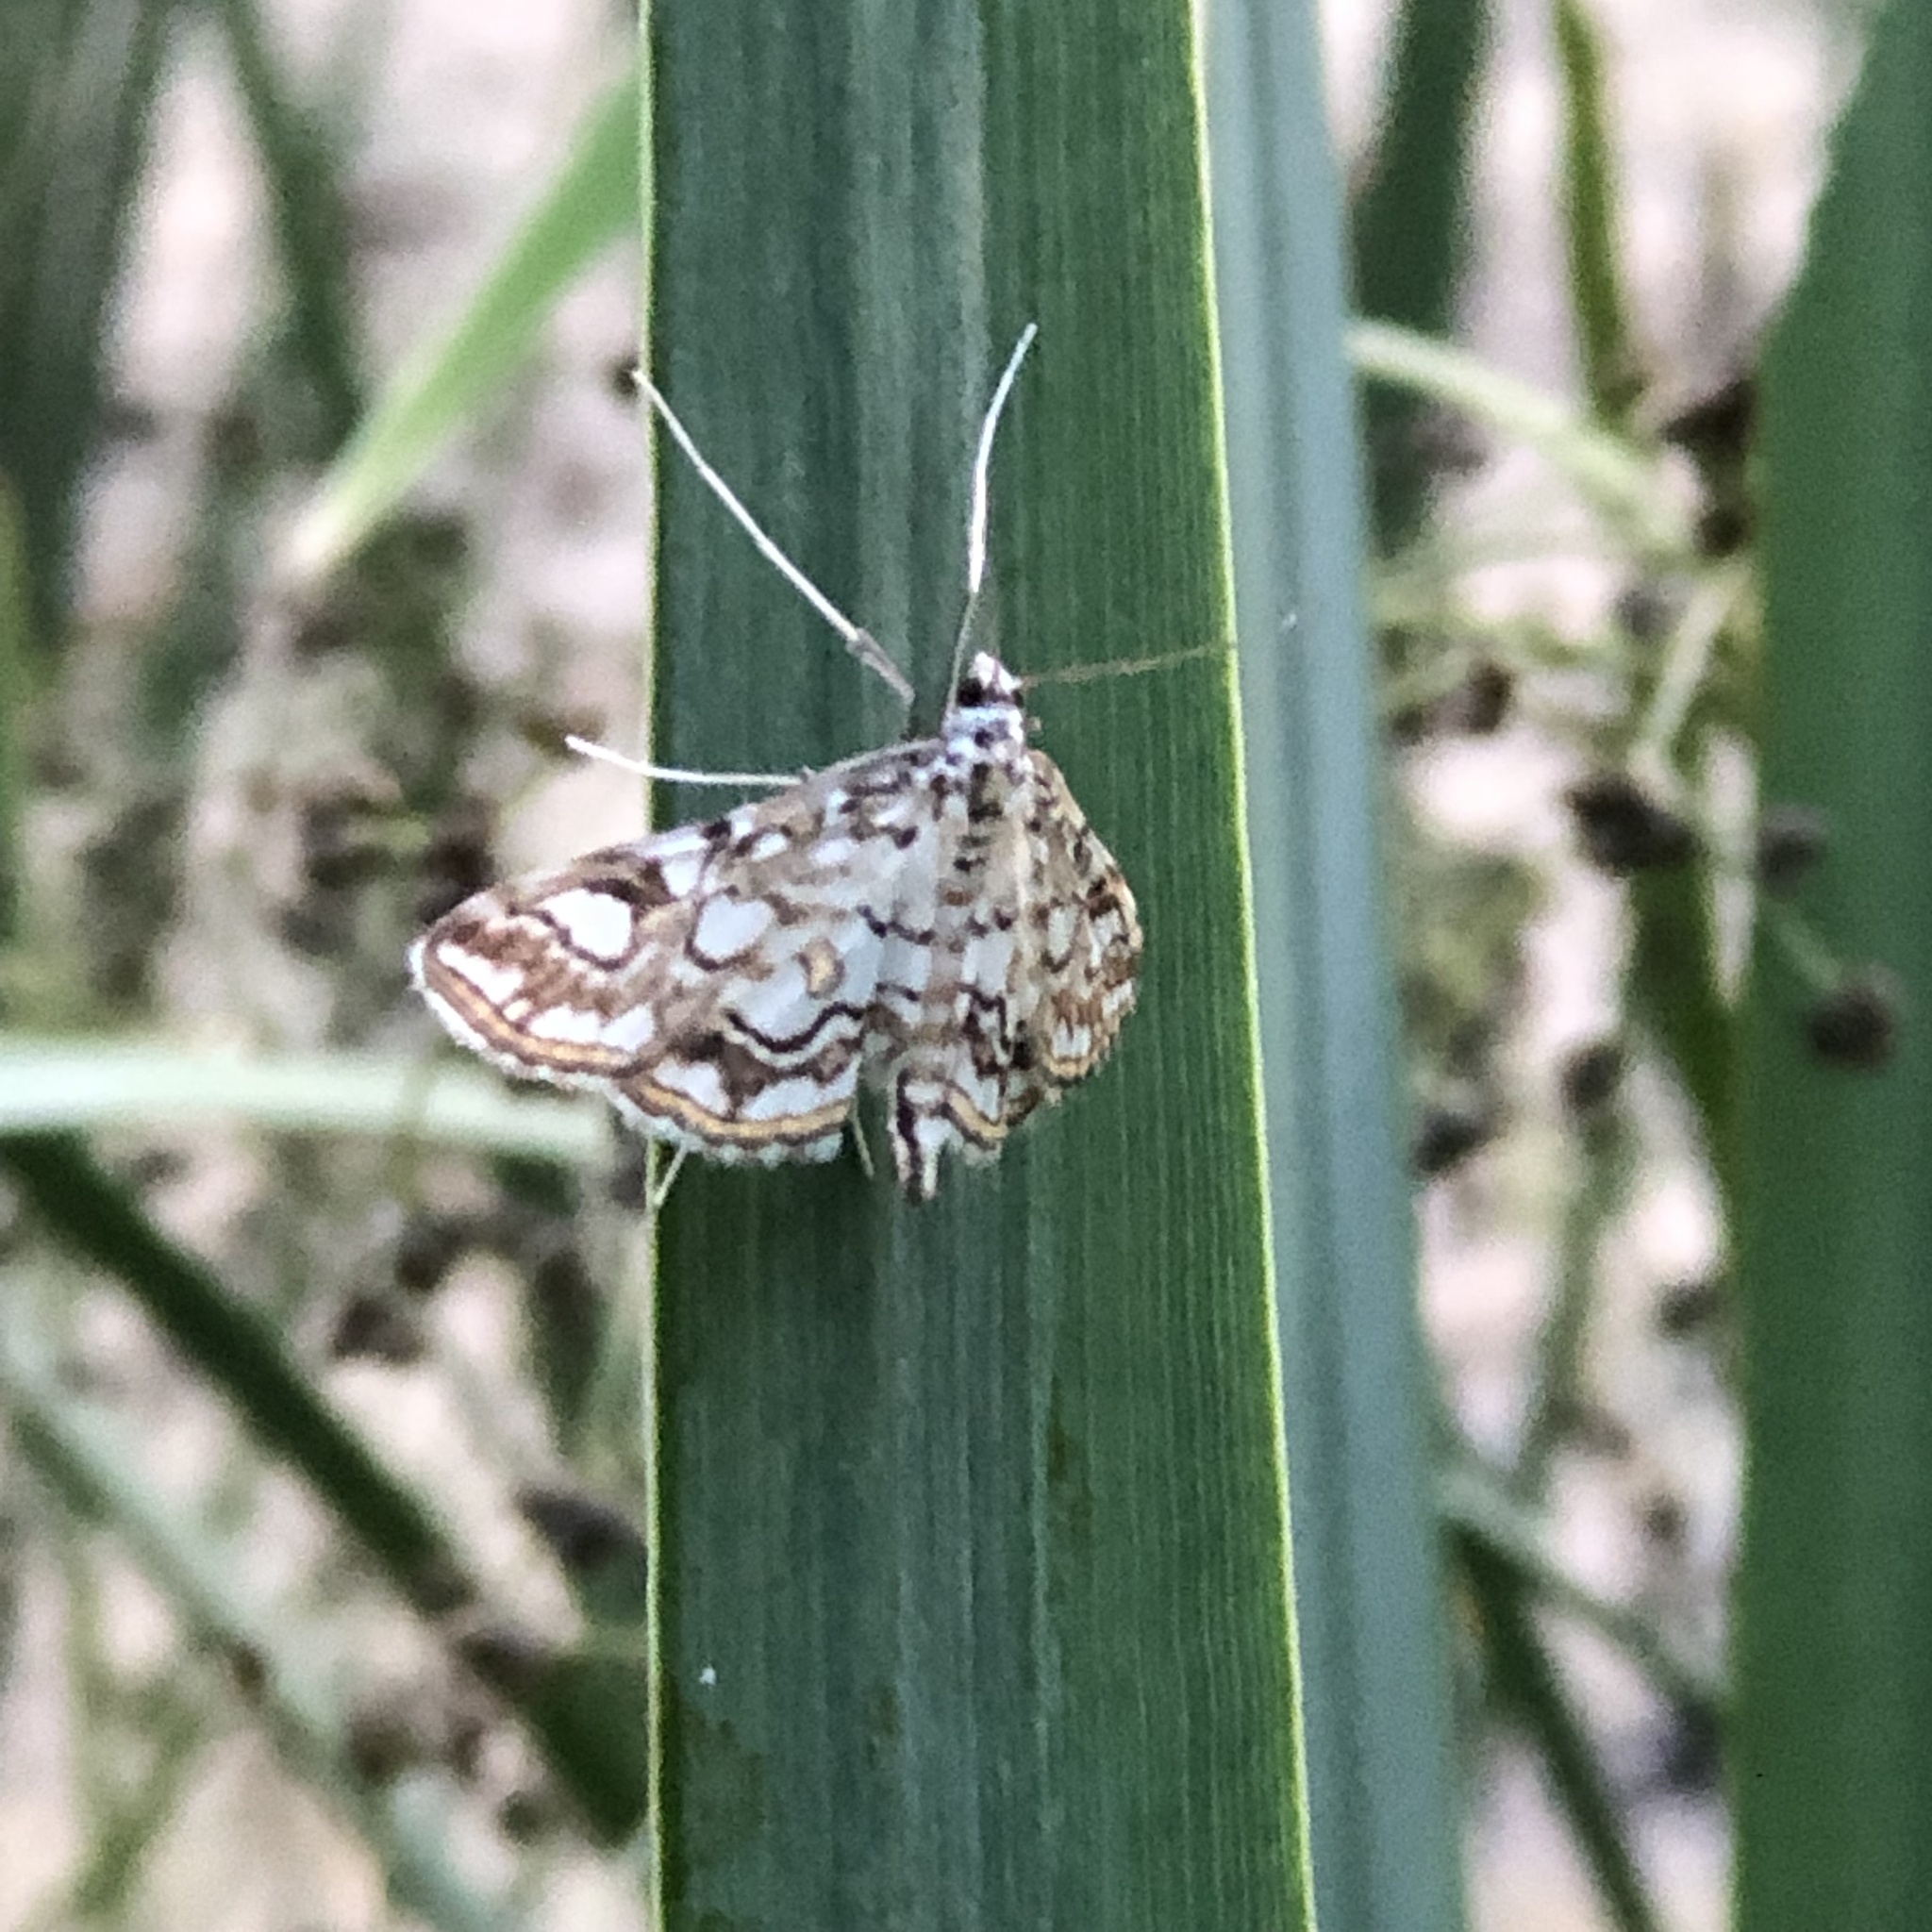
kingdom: Animalia
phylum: Arthropoda
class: Insecta
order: Lepidoptera
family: Crambidae
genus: Elophila
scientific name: Elophila nymphaeata
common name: Brown china-mark
